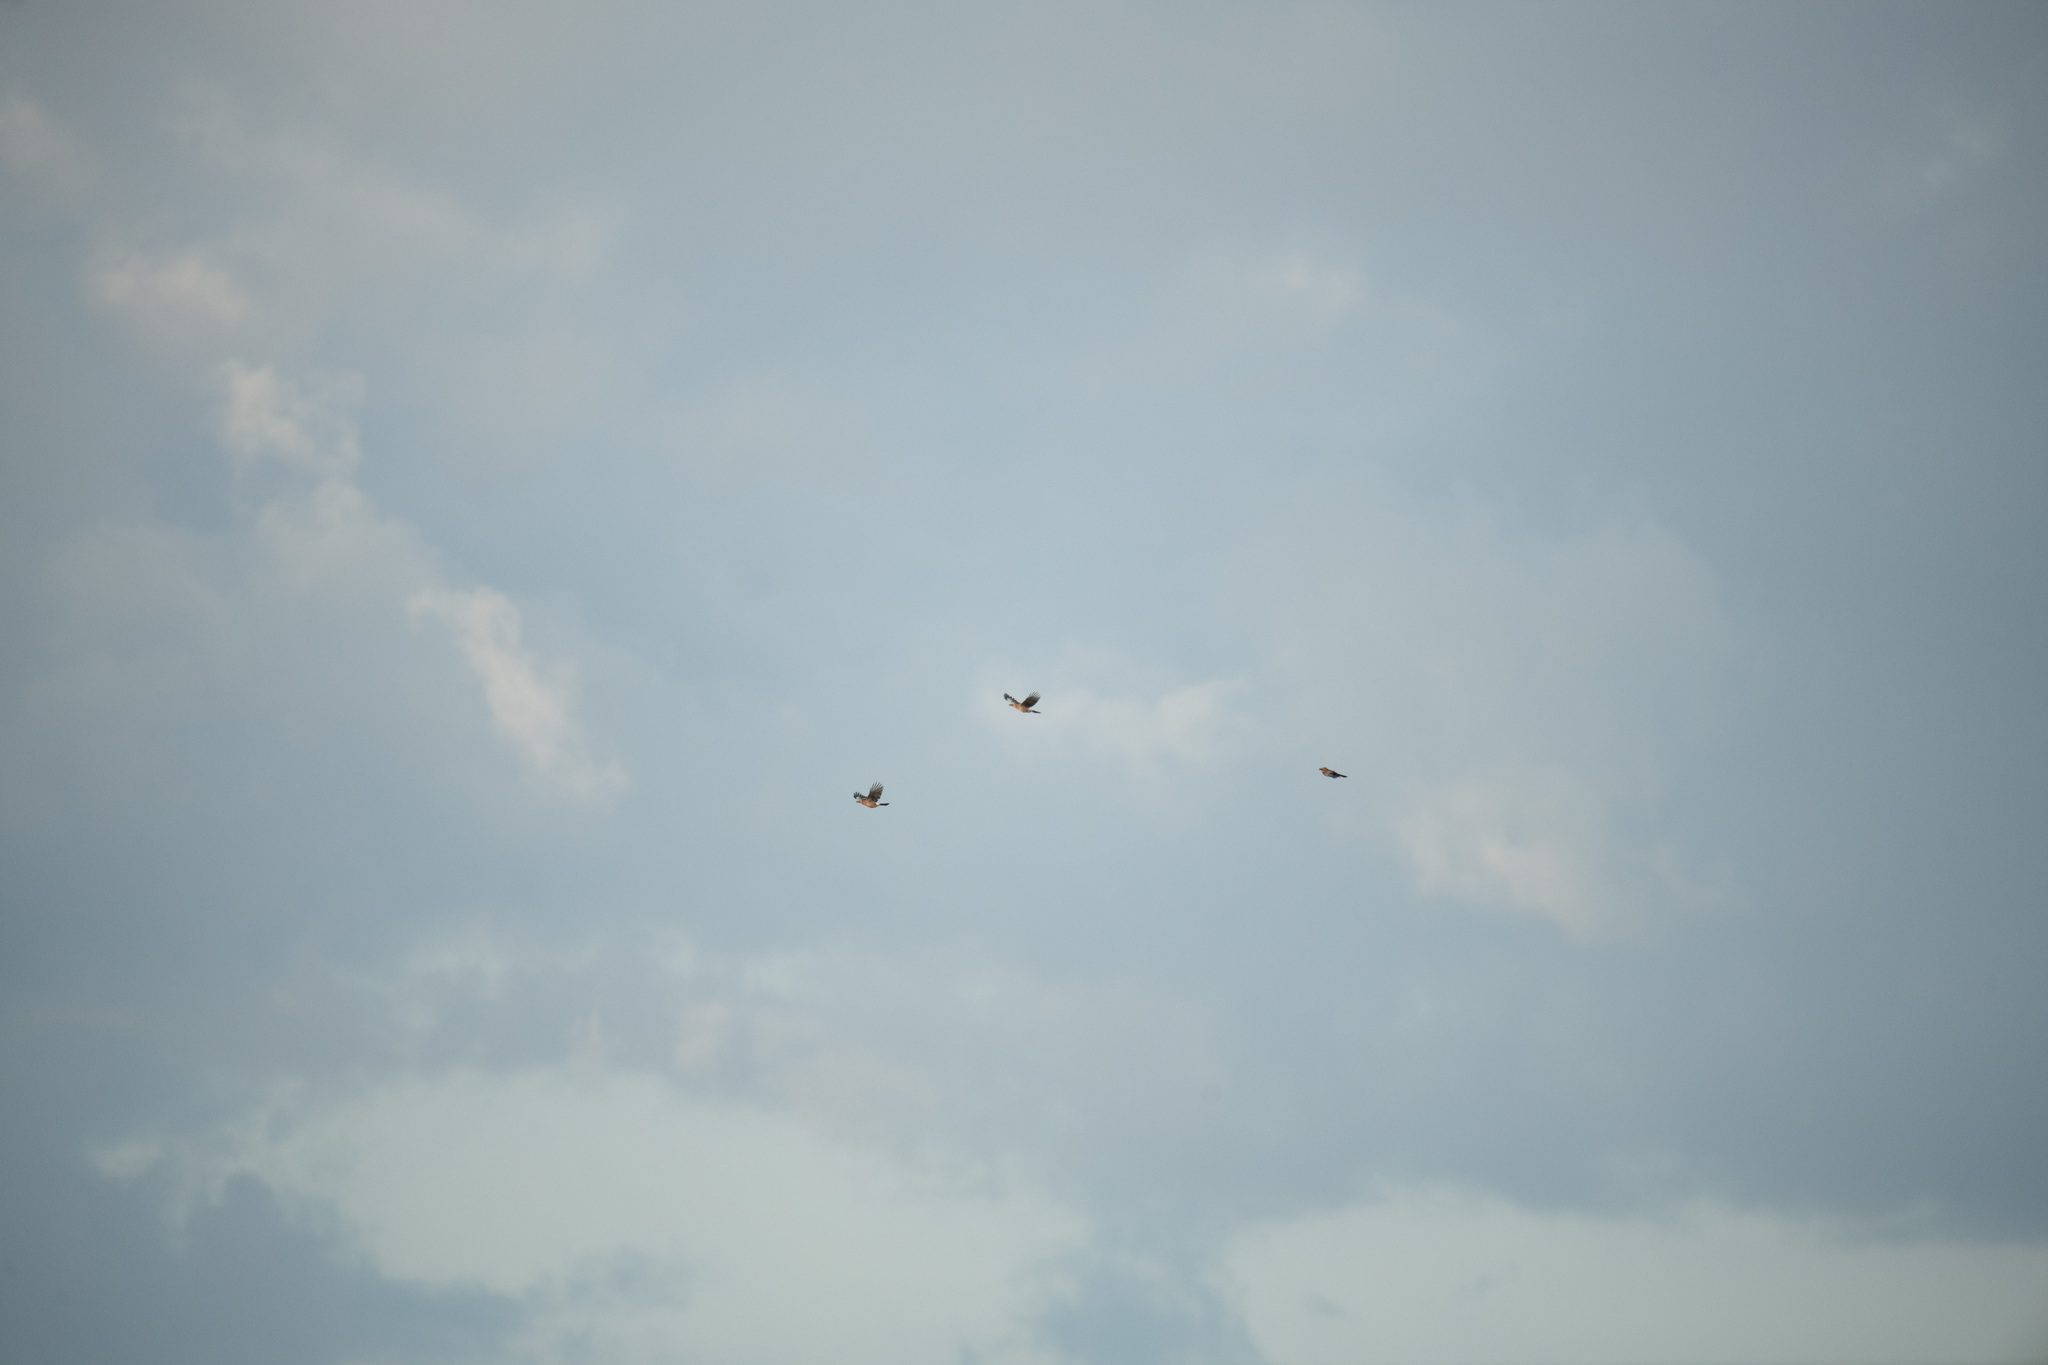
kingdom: Animalia
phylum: Chordata
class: Aves
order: Passeriformes
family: Corvidae
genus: Garrulus
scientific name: Garrulus glandarius
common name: Eurasian jay
